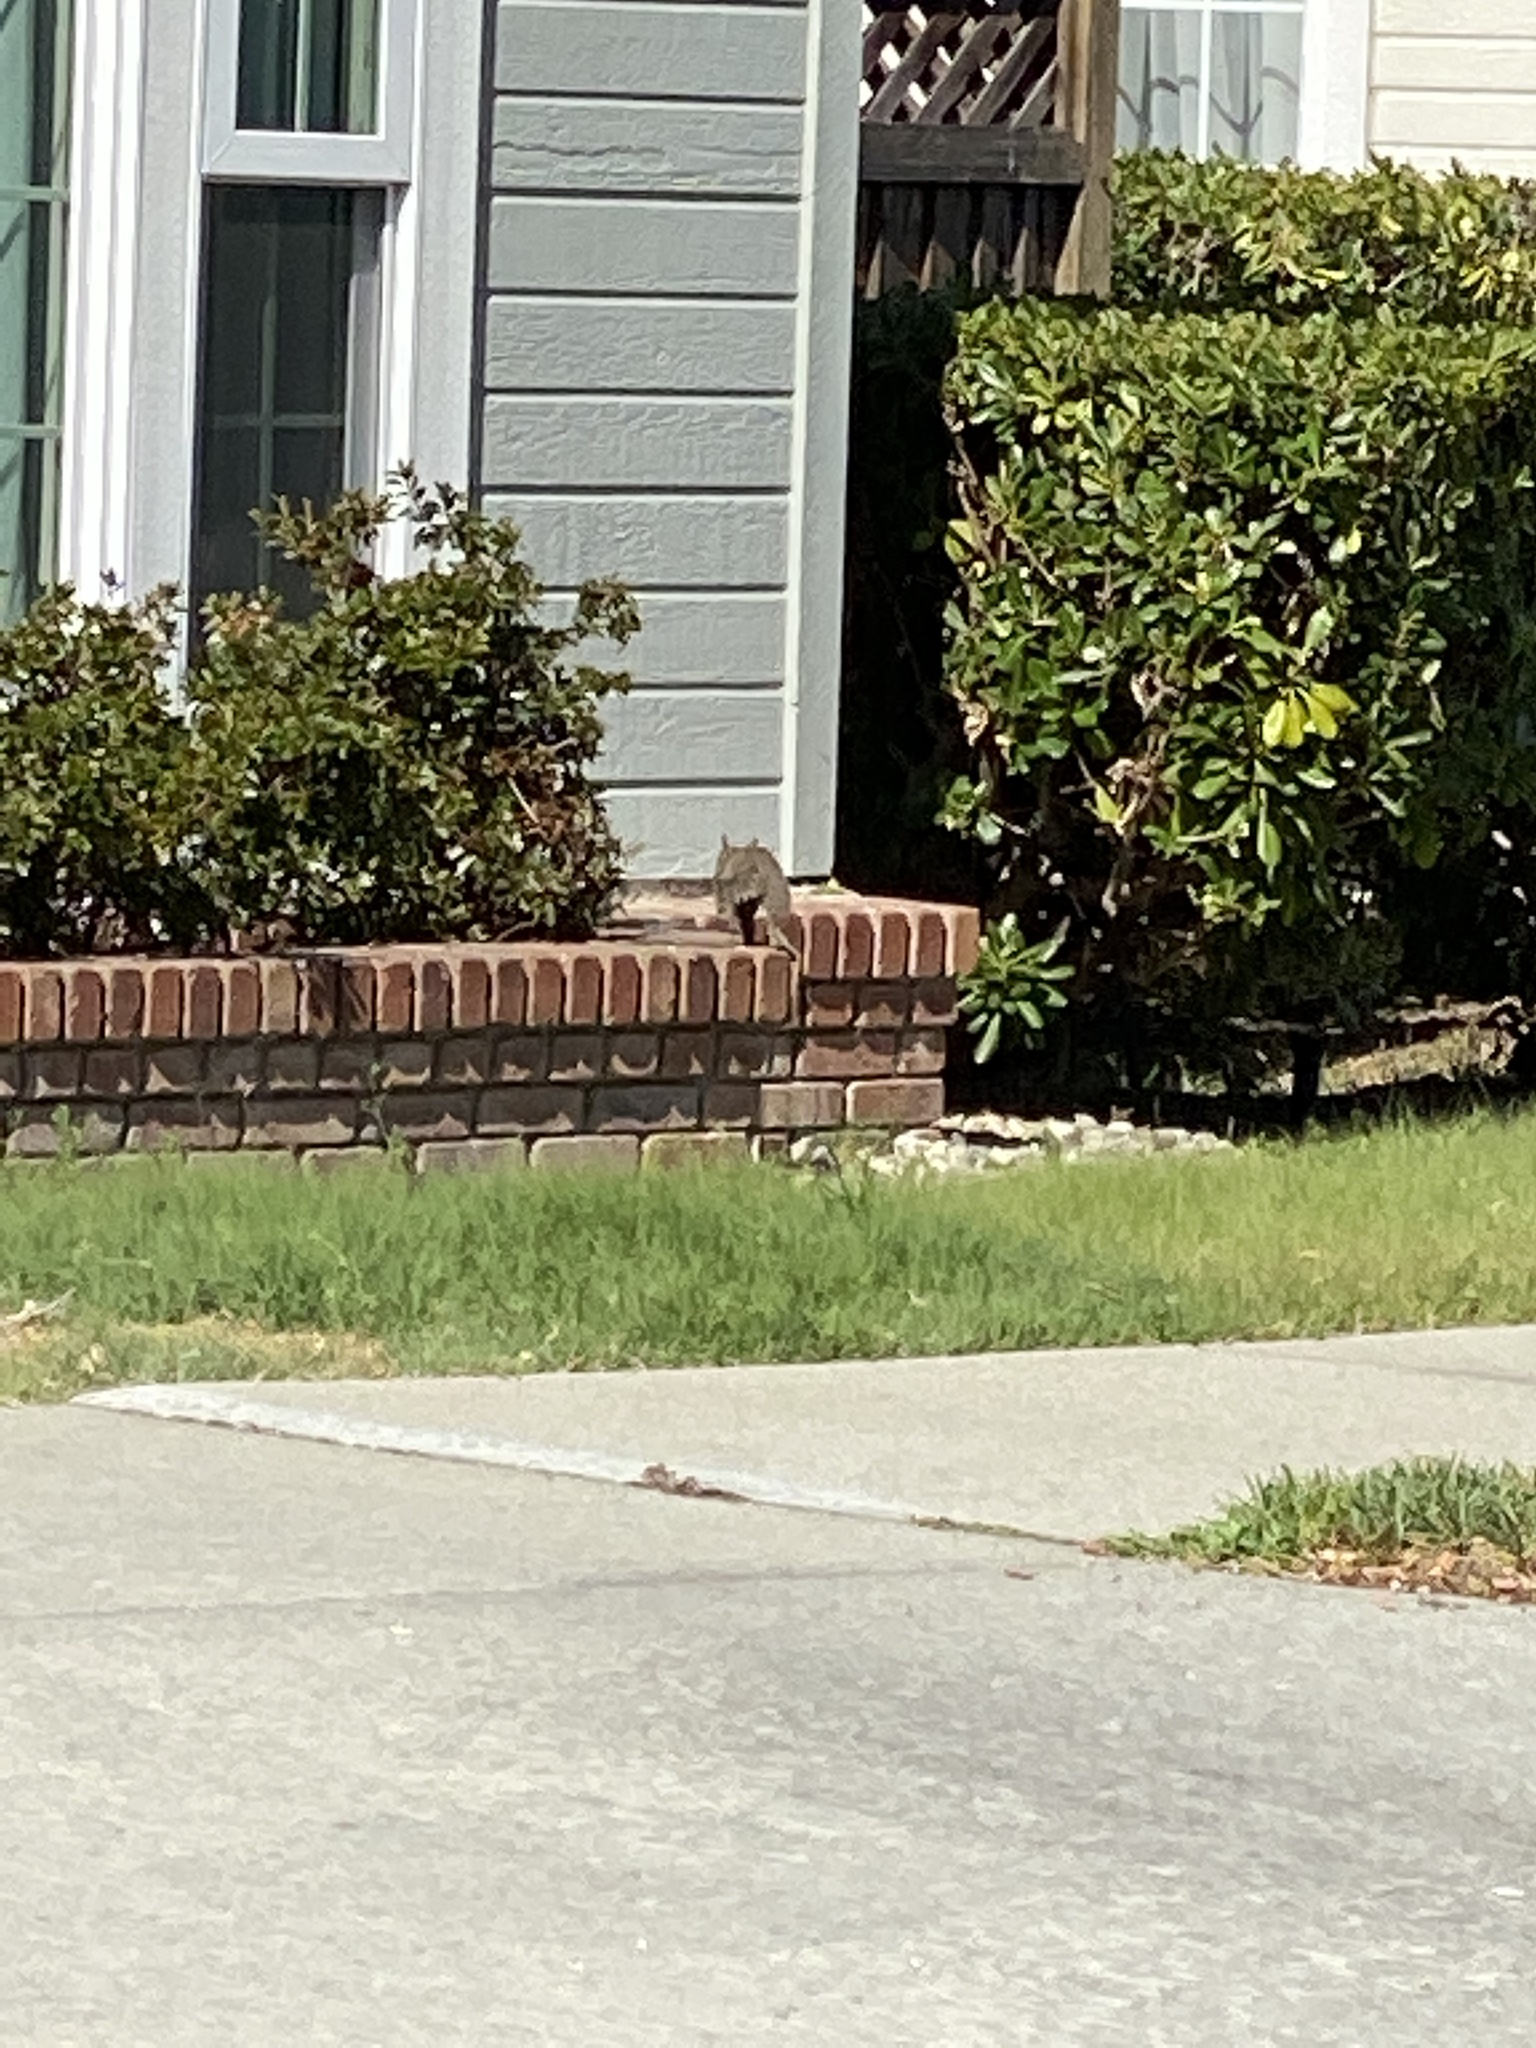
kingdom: Animalia
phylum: Chordata
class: Mammalia
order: Rodentia
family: Sciuridae
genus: Sciurus
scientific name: Sciurus carolinensis
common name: Eastern gray squirrel
